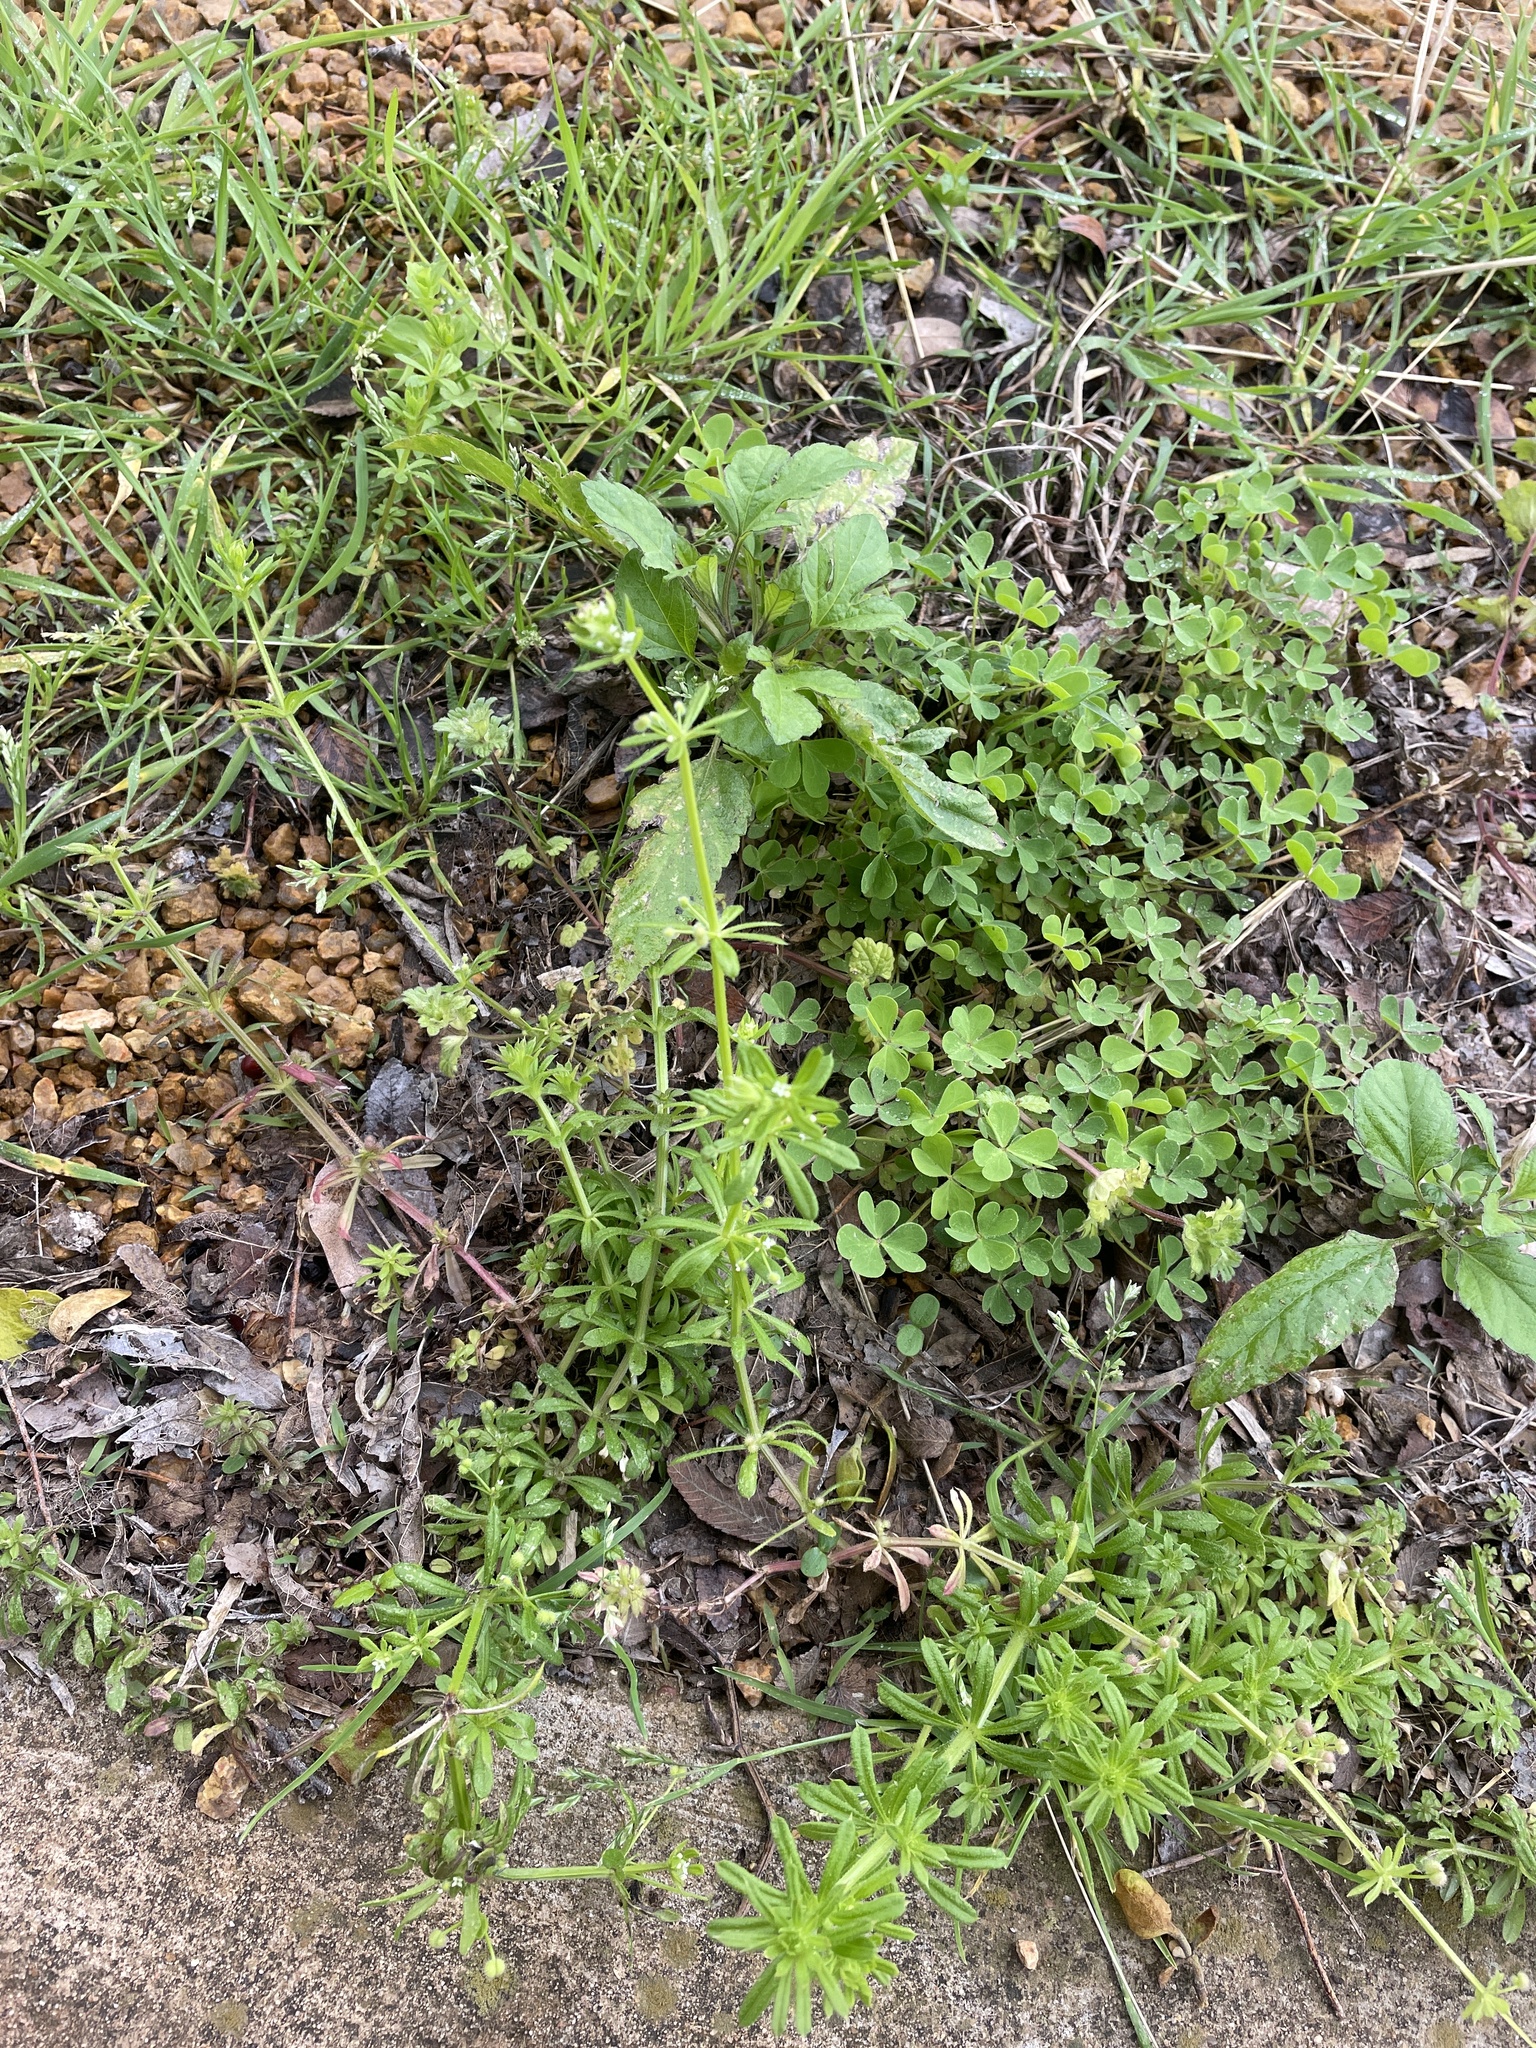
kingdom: Plantae
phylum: Tracheophyta
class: Magnoliopsida
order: Gentianales
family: Rubiaceae
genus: Galium
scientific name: Galium aparine
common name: Cleavers
